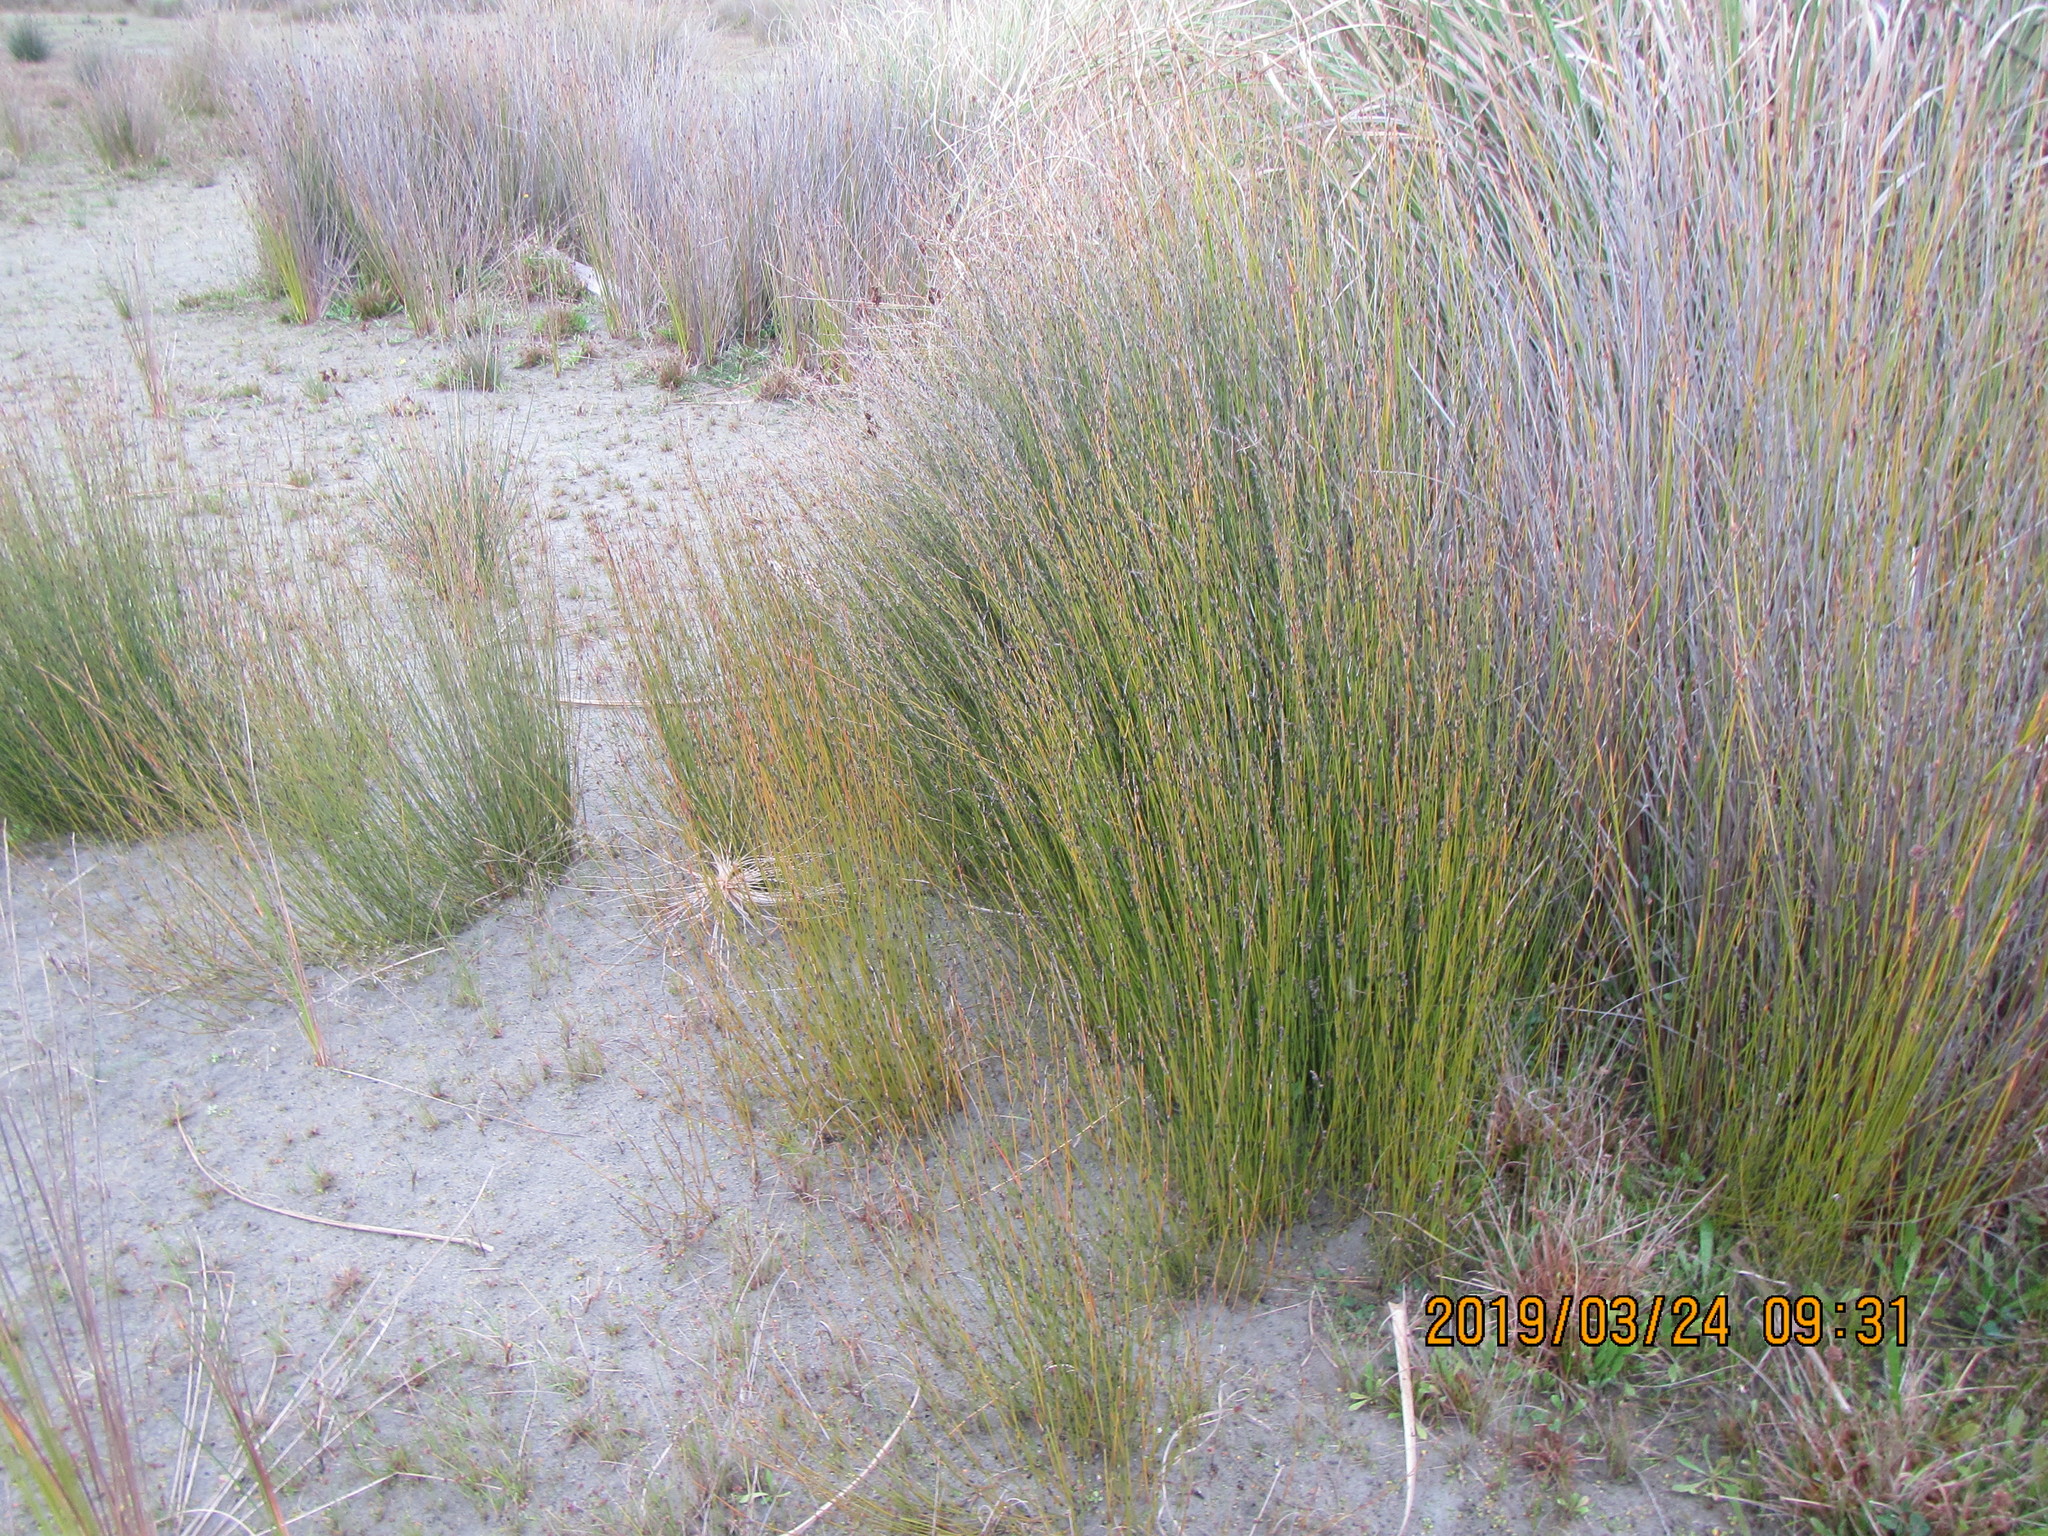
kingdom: Plantae
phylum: Tracheophyta
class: Liliopsida
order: Poales
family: Restionaceae
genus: Apodasmia
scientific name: Apodasmia similis
